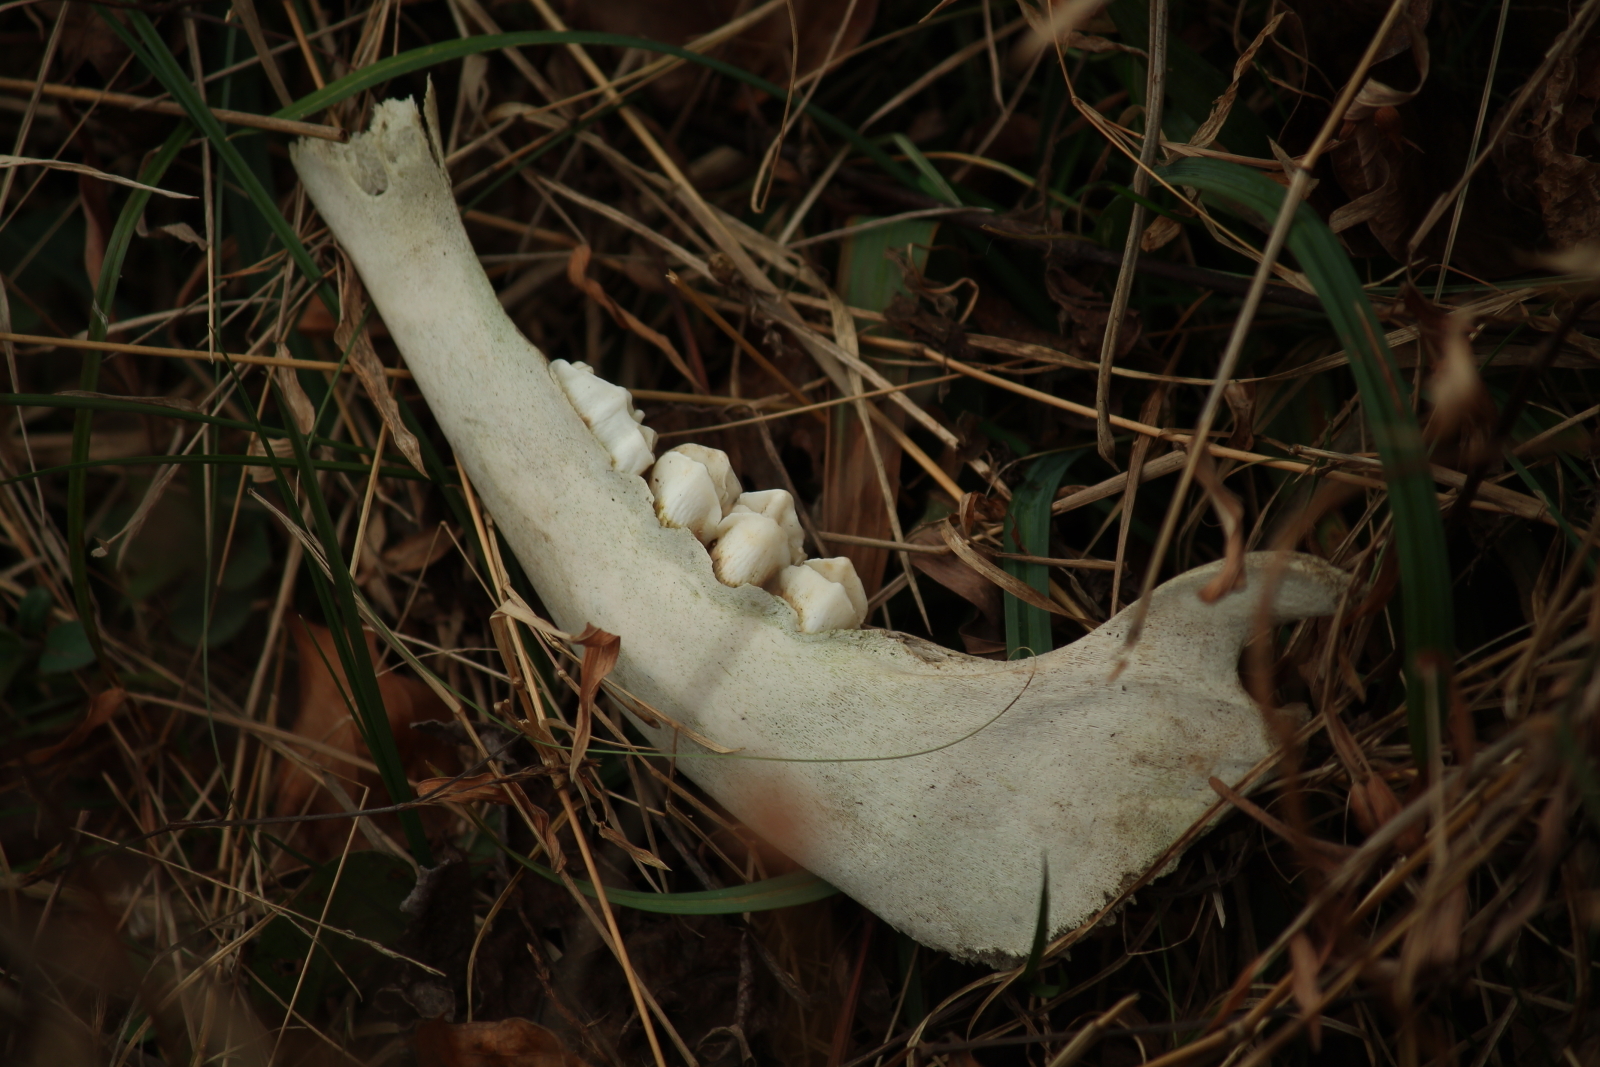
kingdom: Animalia
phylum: Chordata
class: Mammalia
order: Artiodactyla
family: Cervidae
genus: Odocoileus
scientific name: Odocoileus virginianus
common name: White-tailed deer
